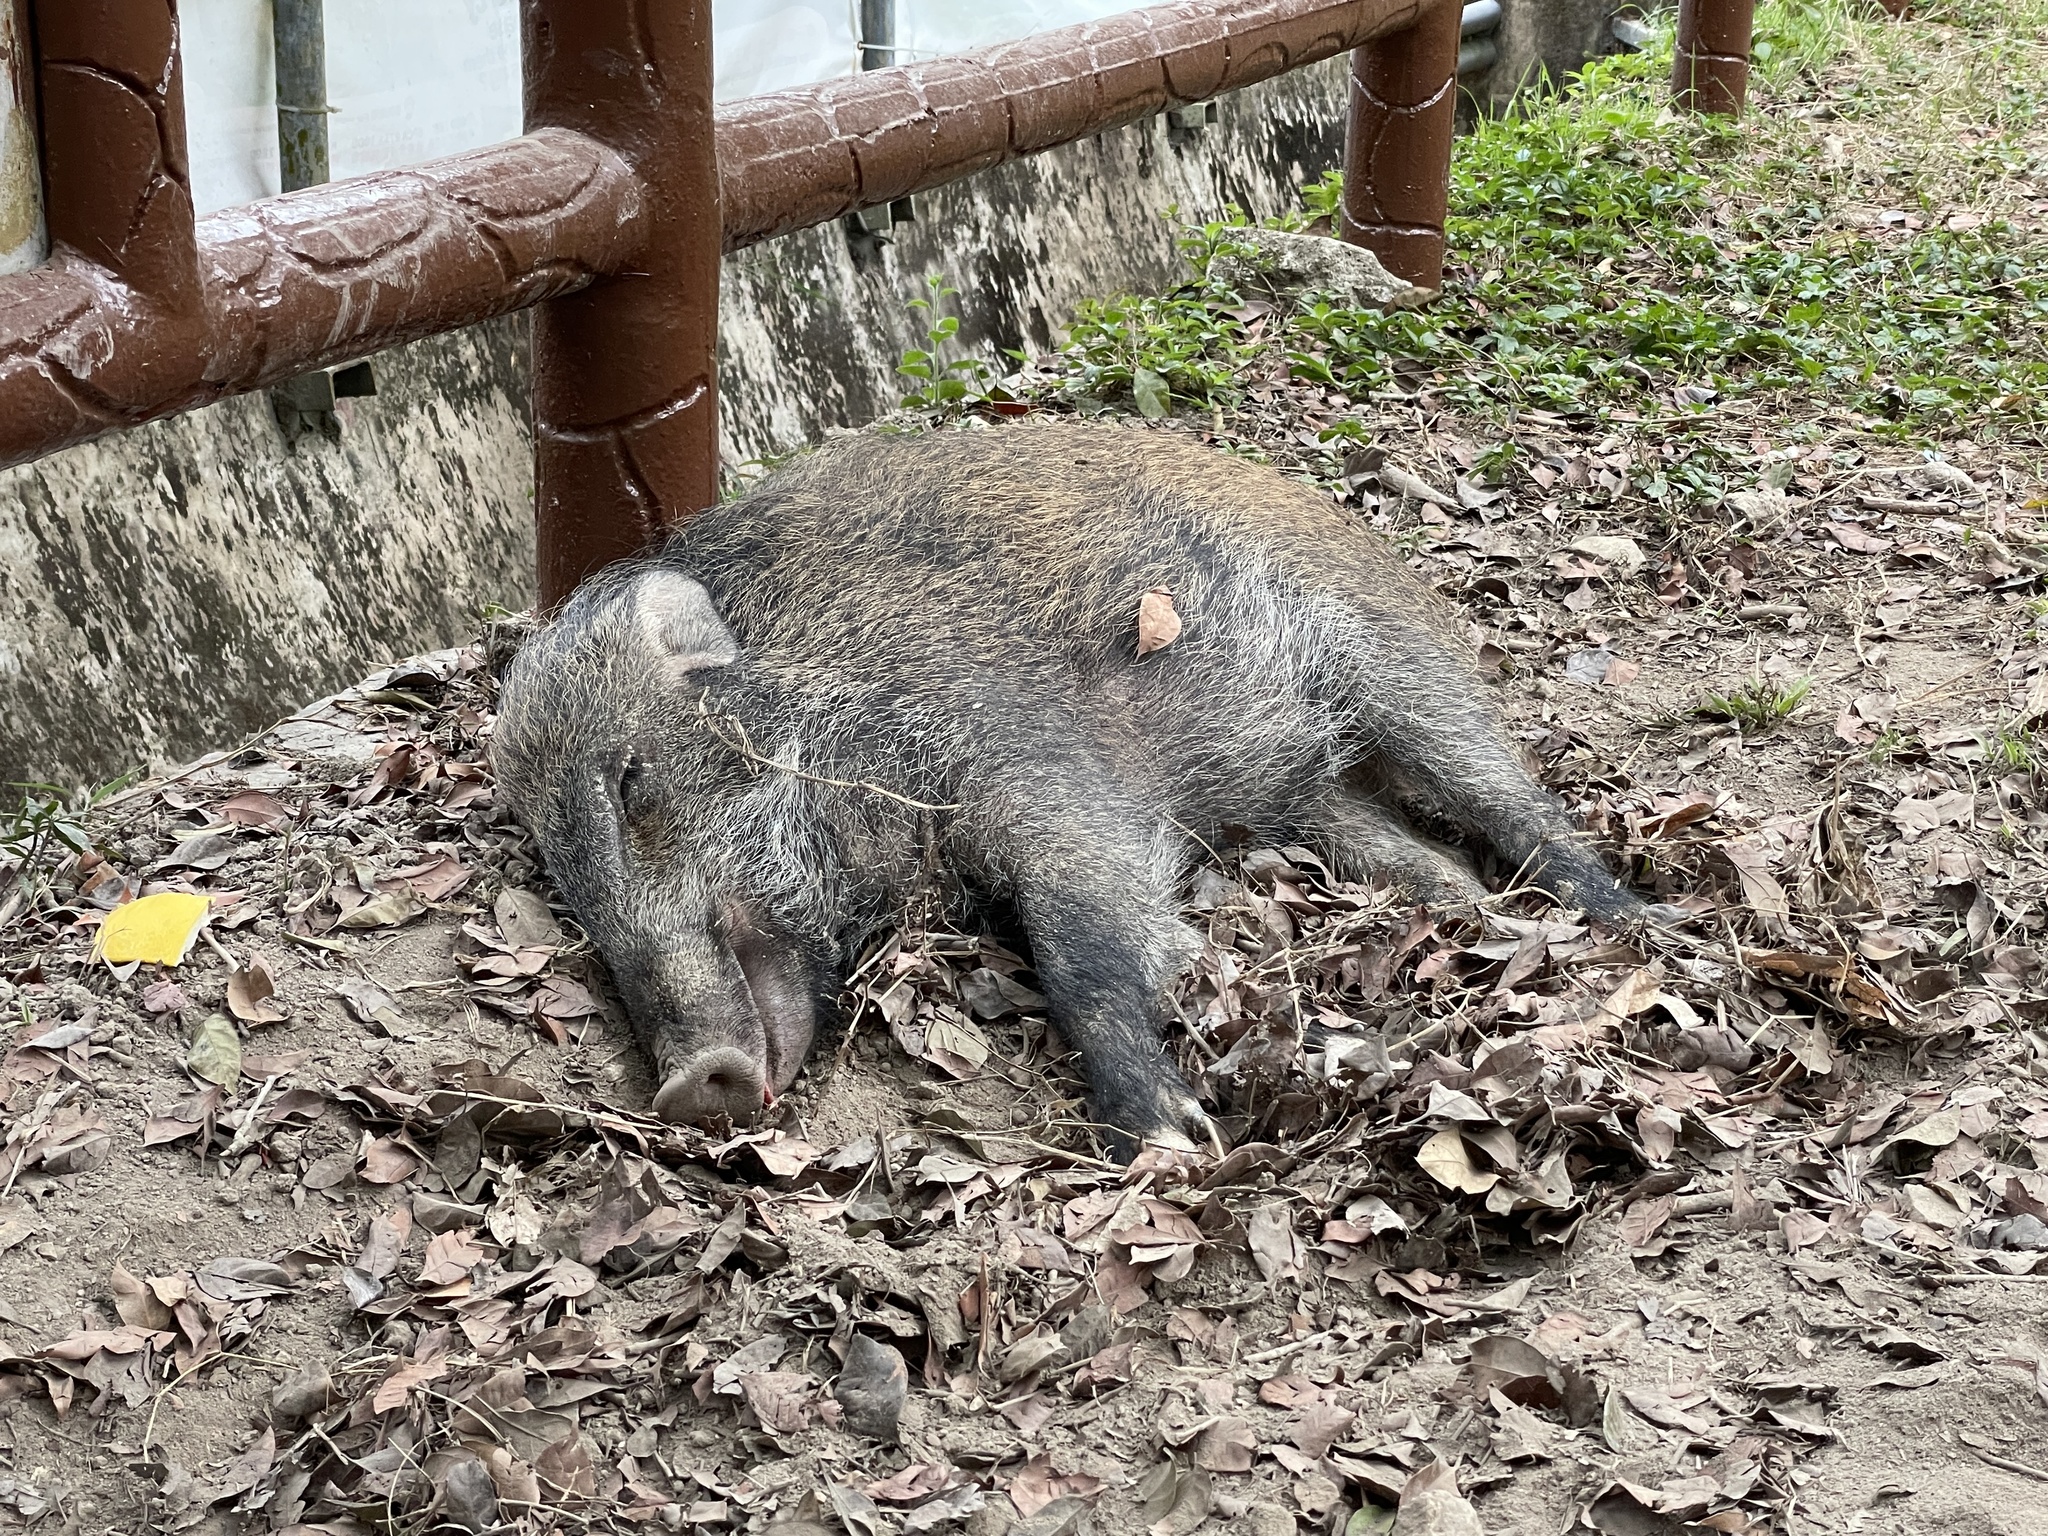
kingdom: Animalia
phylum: Chordata
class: Mammalia
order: Artiodactyla
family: Suidae
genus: Sus
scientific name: Sus scrofa
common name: Wild boar
